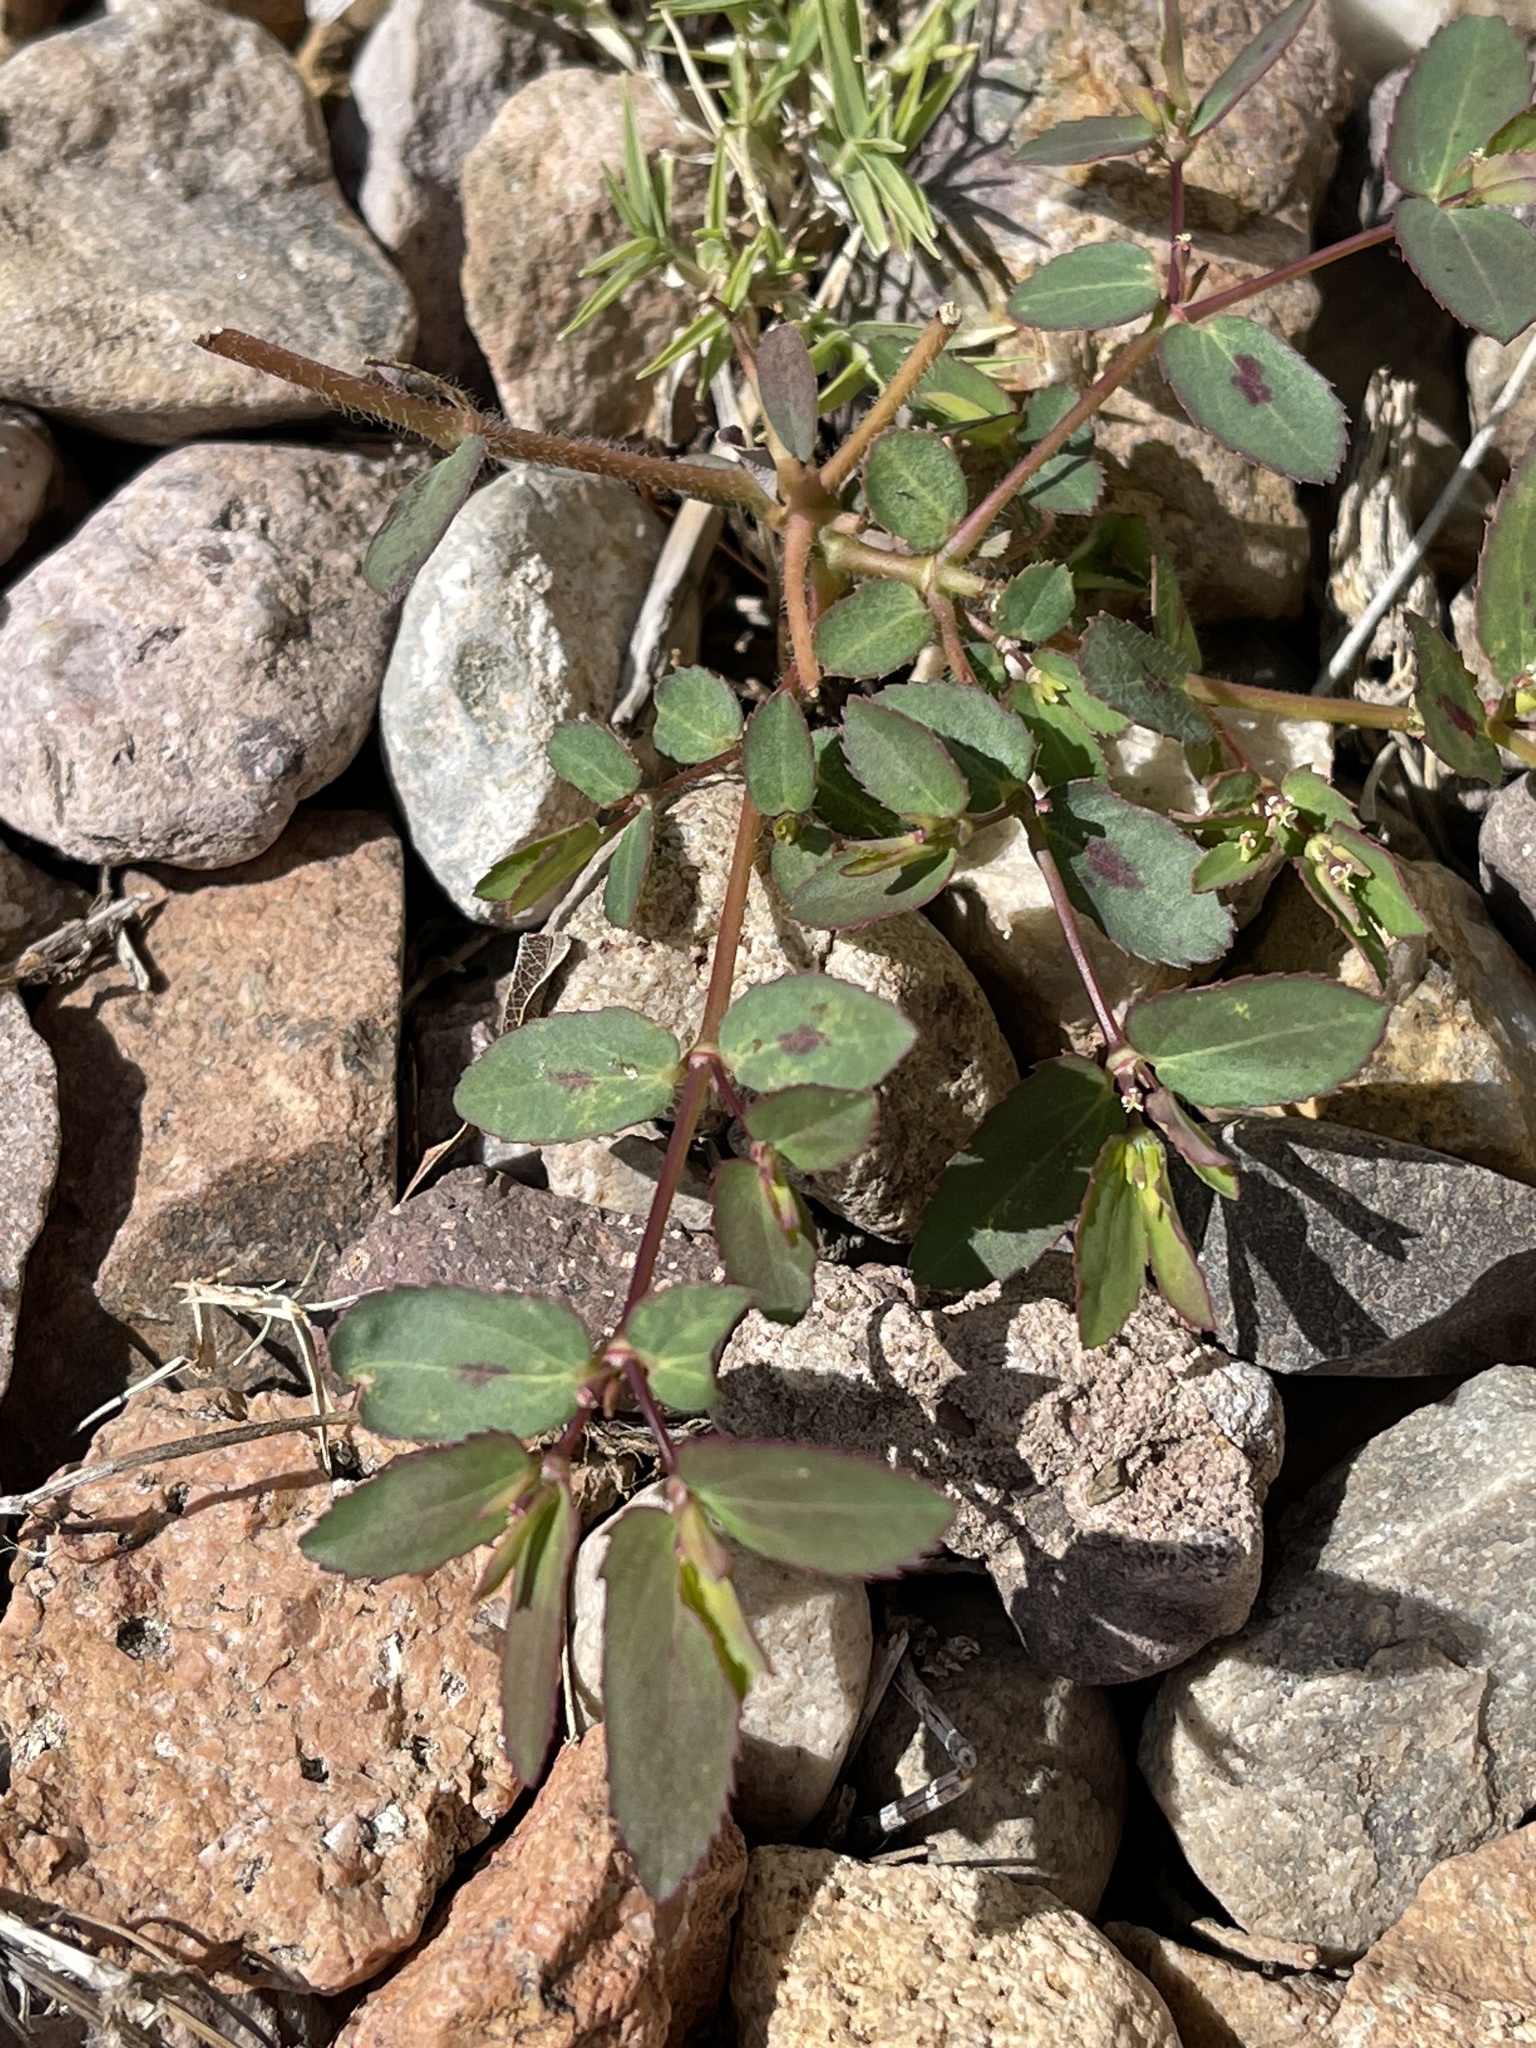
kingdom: Plantae
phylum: Tracheophyta
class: Magnoliopsida
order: Malpighiales
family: Euphorbiaceae
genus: Euphorbia
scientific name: Euphorbia hyssopifolia
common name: Hyssopleaf sandmat
